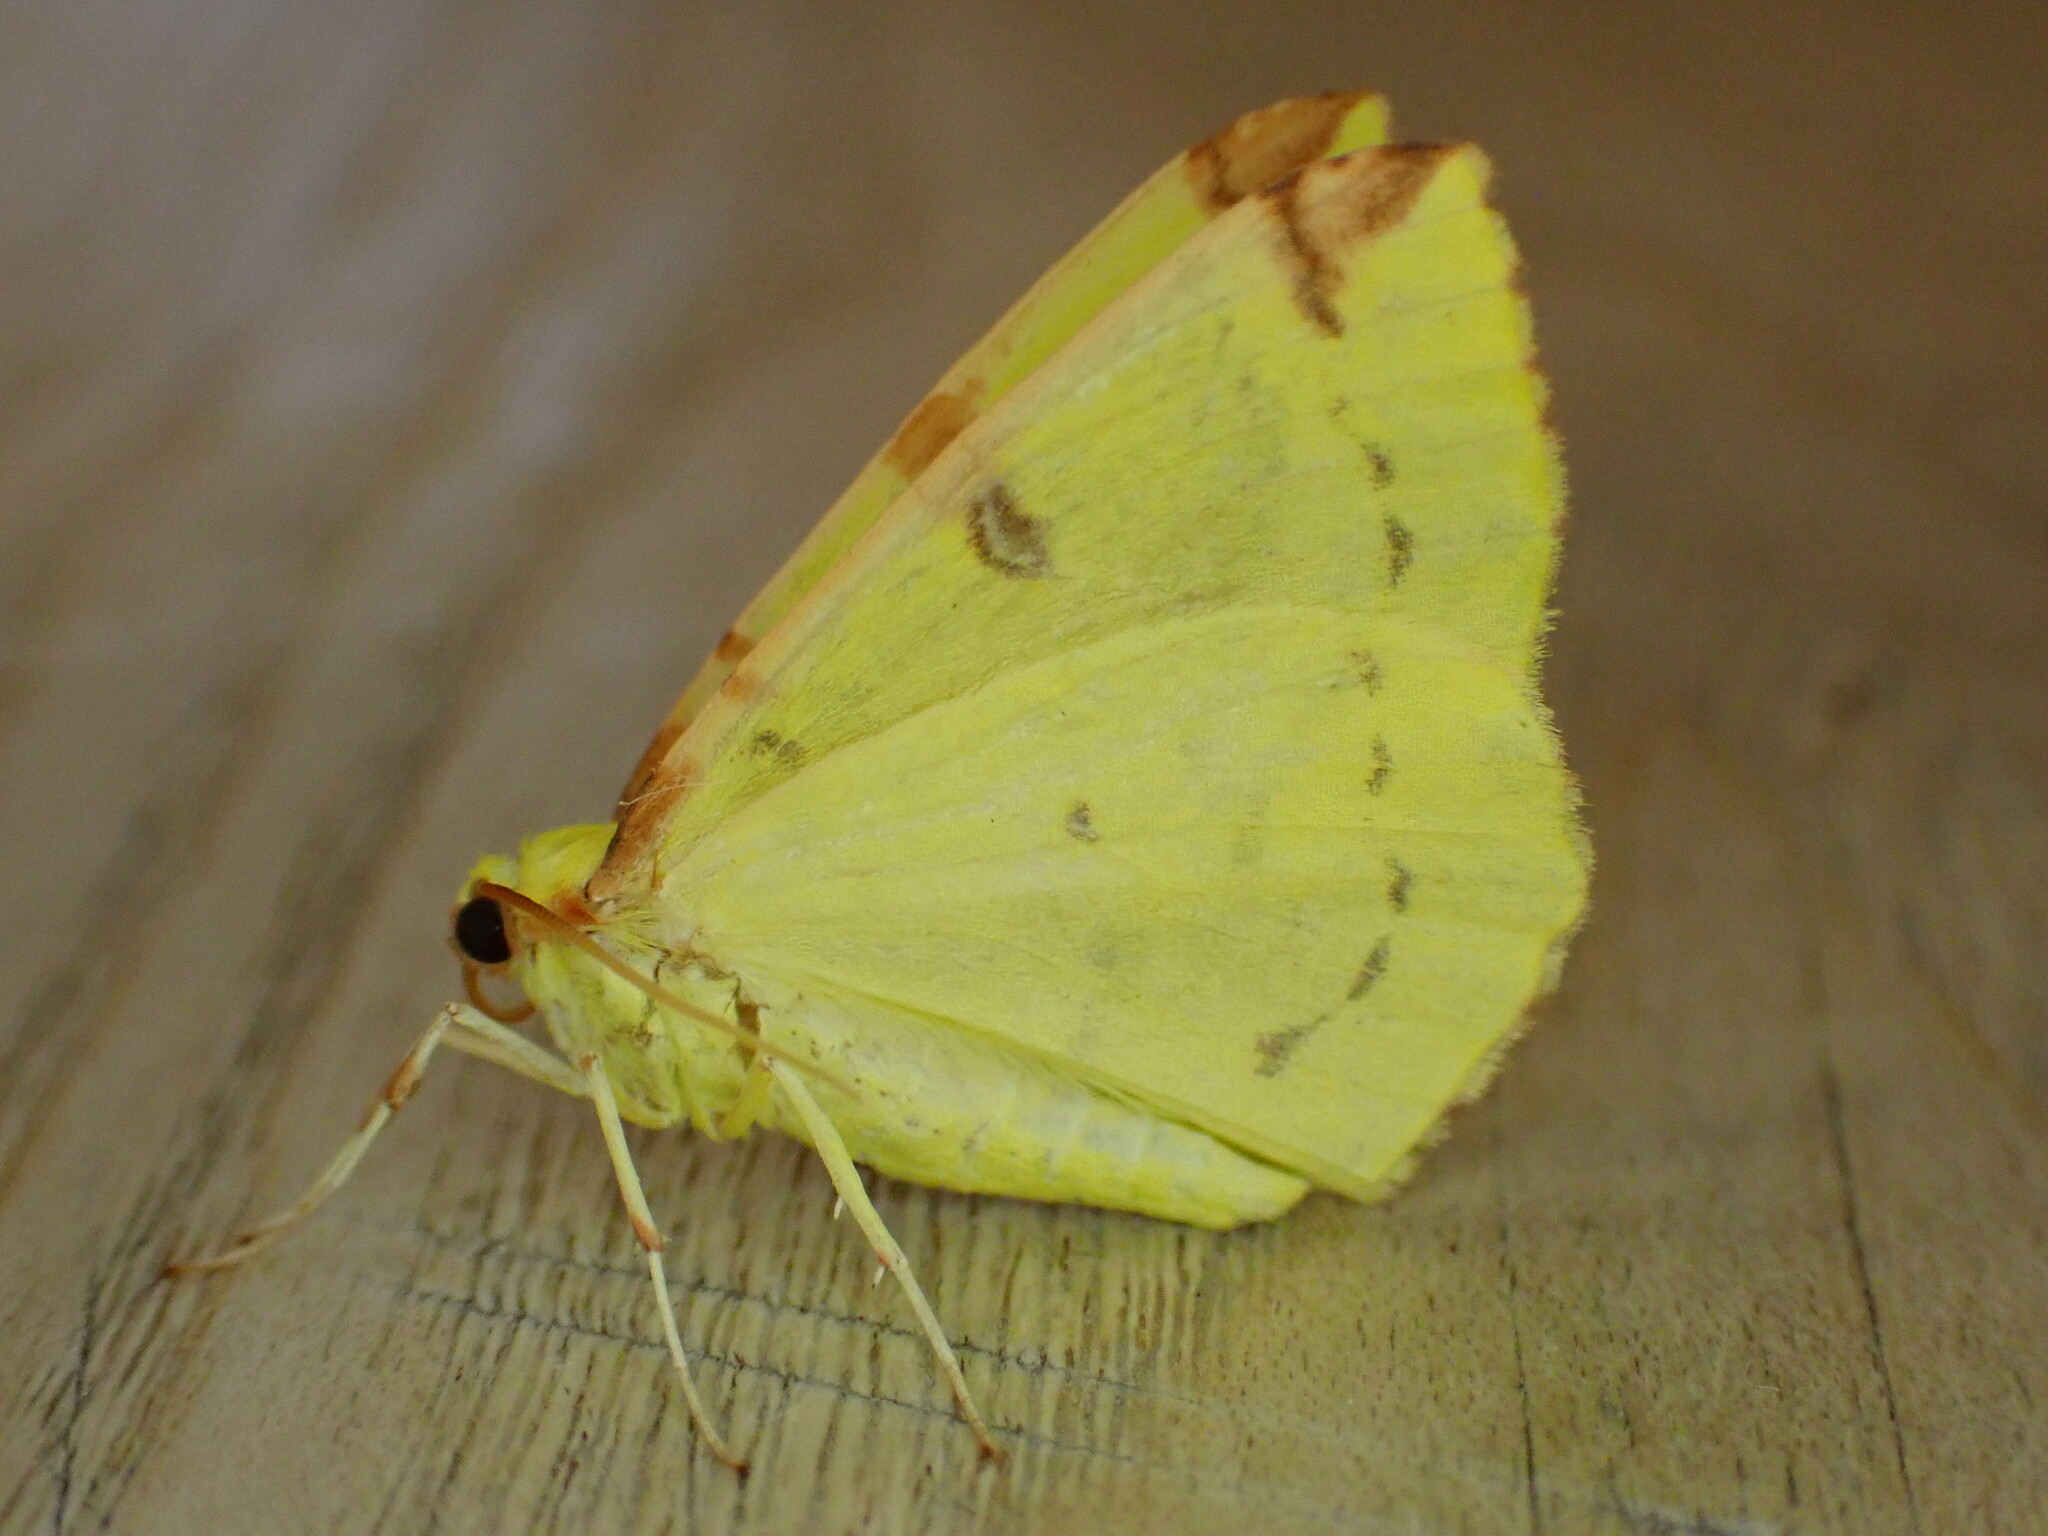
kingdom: Animalia
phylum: Arthropoda
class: Insecta
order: Lepidoptera
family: Geometridae
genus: Opisthograptis
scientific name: Opisthograptis luteolata
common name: Brimstone moth
